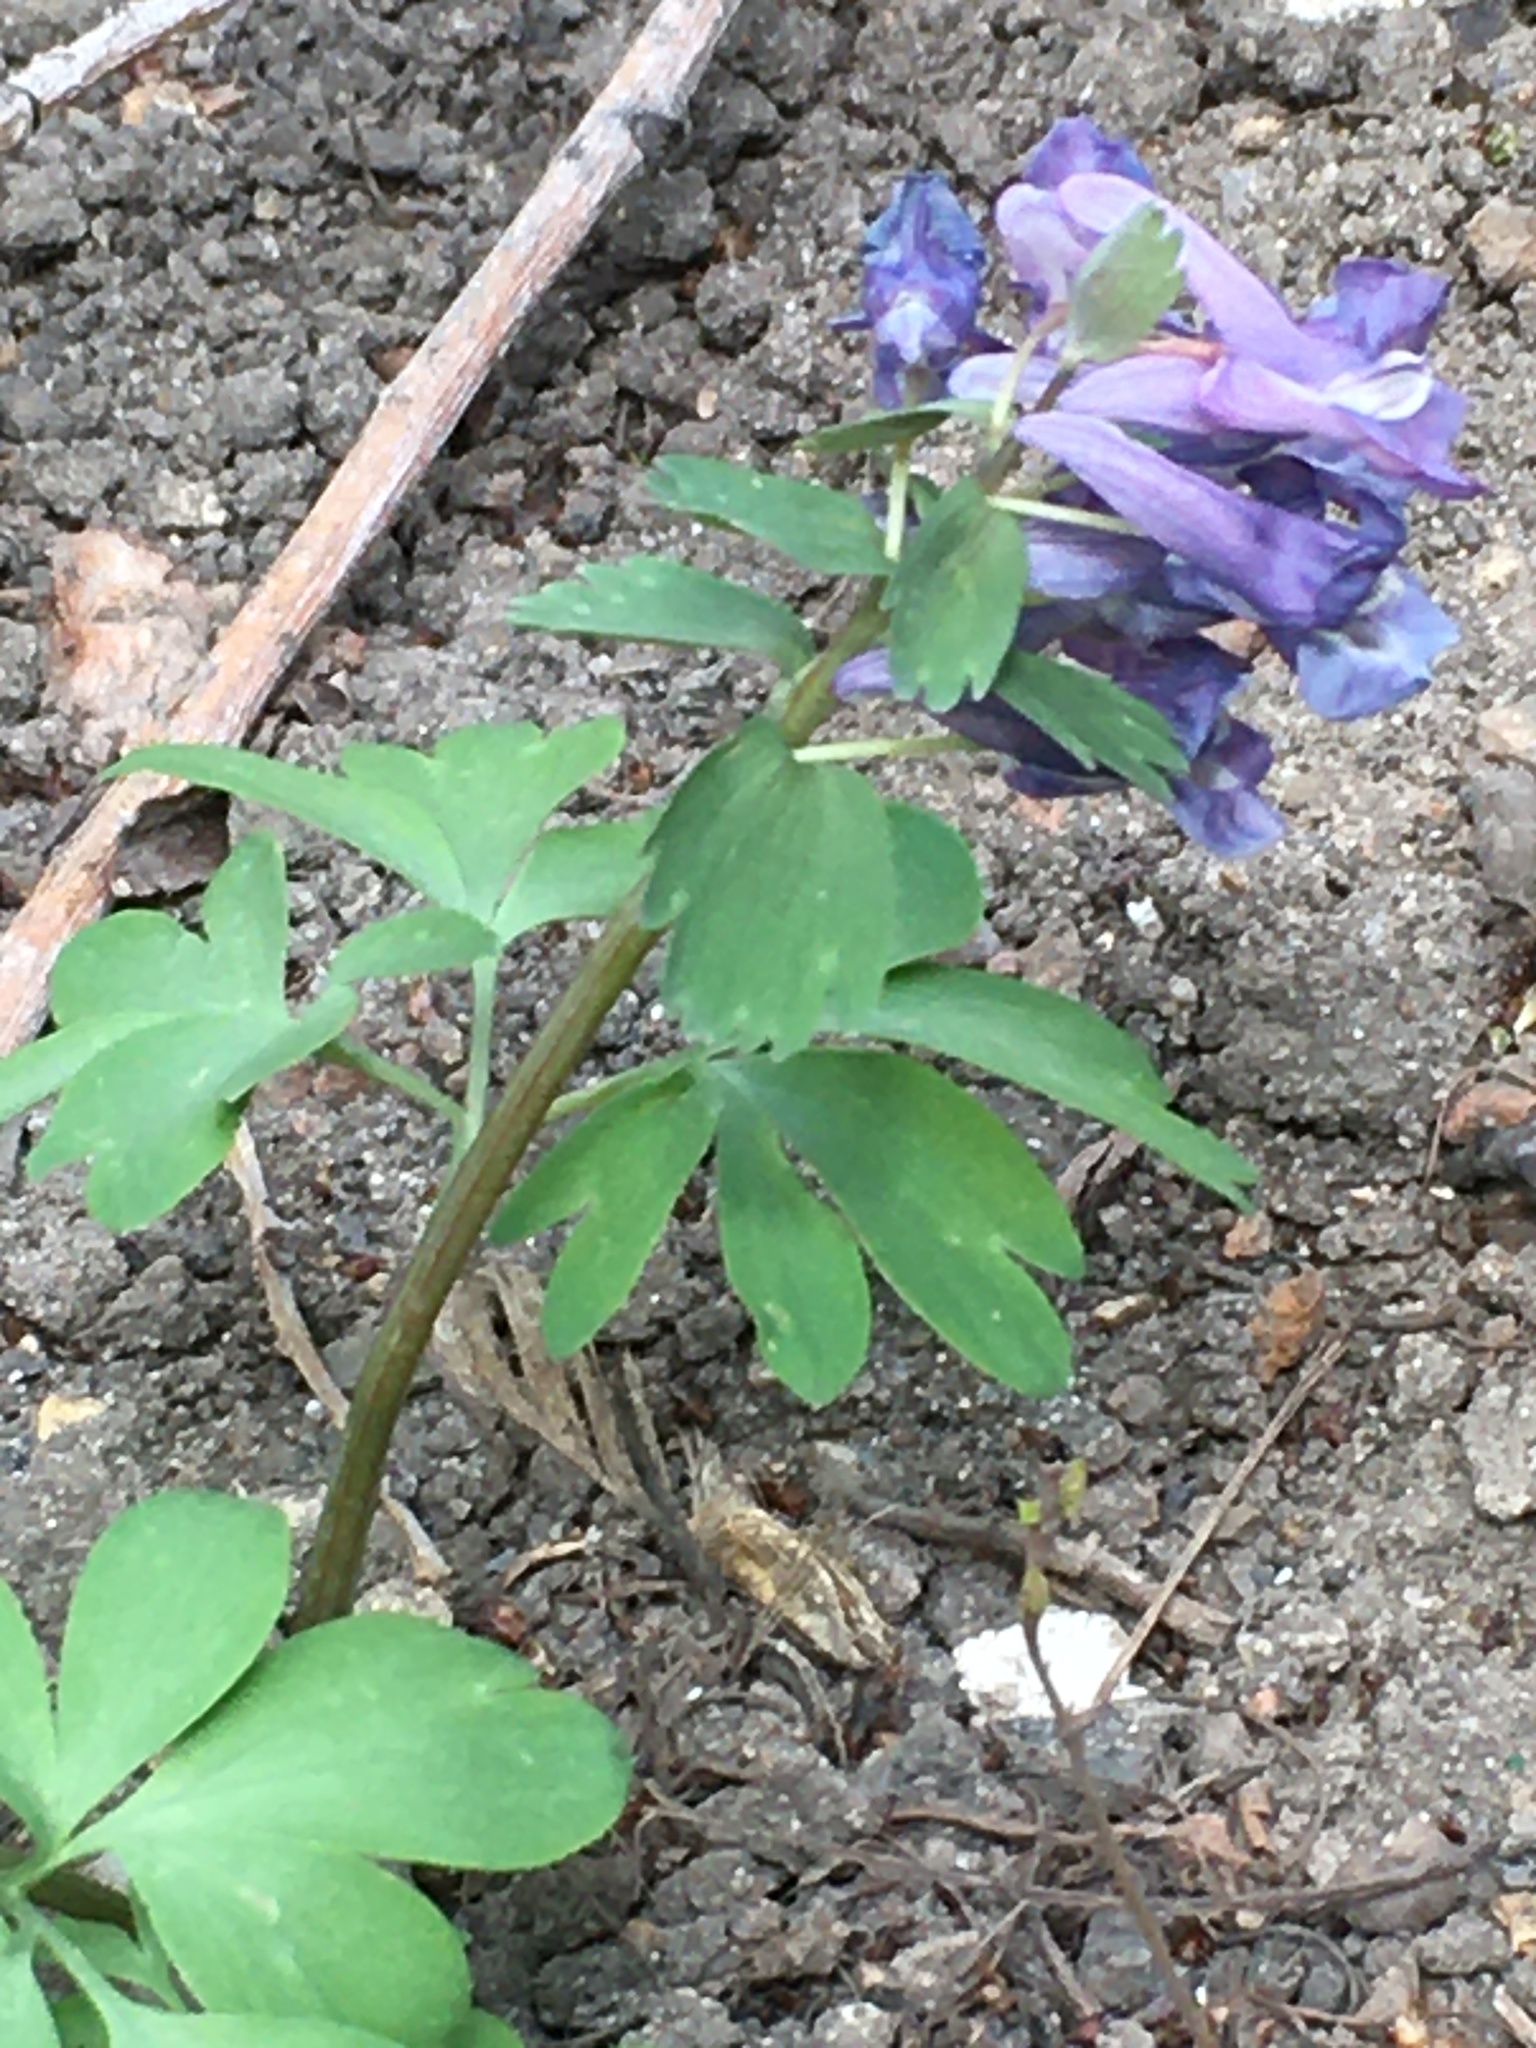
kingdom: Plantae
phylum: Tracheophyta
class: Magnoliopsida
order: Ranunculales
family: Papaveraceae
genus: Corydalis
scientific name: Corydalis solida
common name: Bird-in-a-bush
